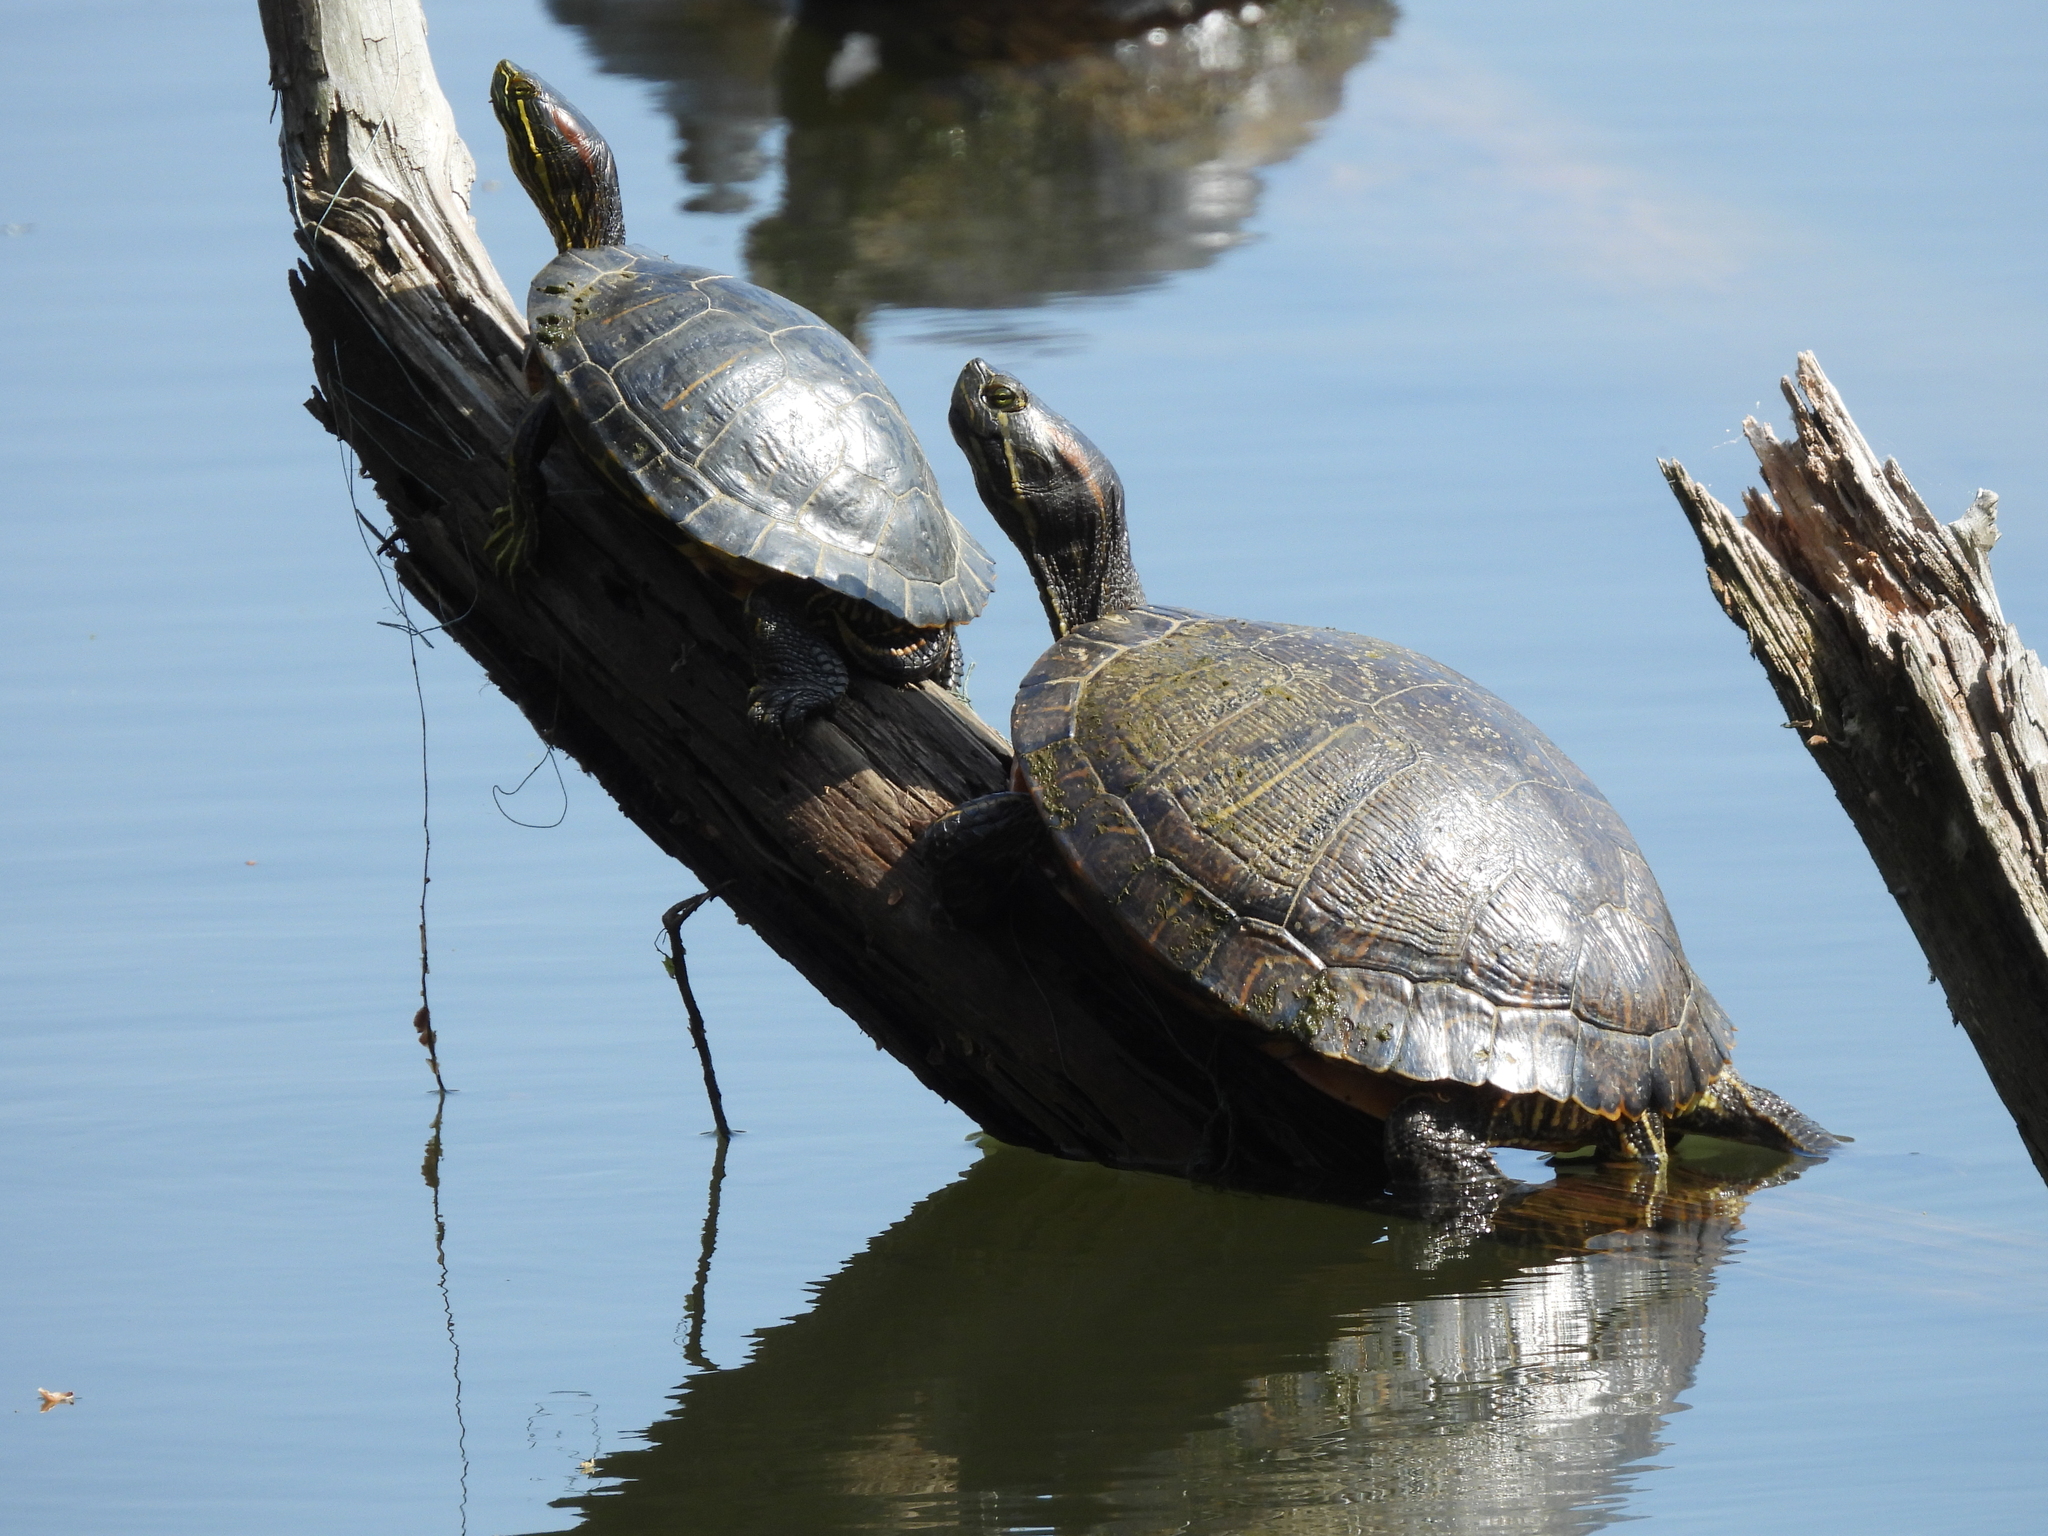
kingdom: Animalia
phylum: Chordata
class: Testudines
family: Emydidae
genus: Trachemys
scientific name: Trachemys scripta
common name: Slider
